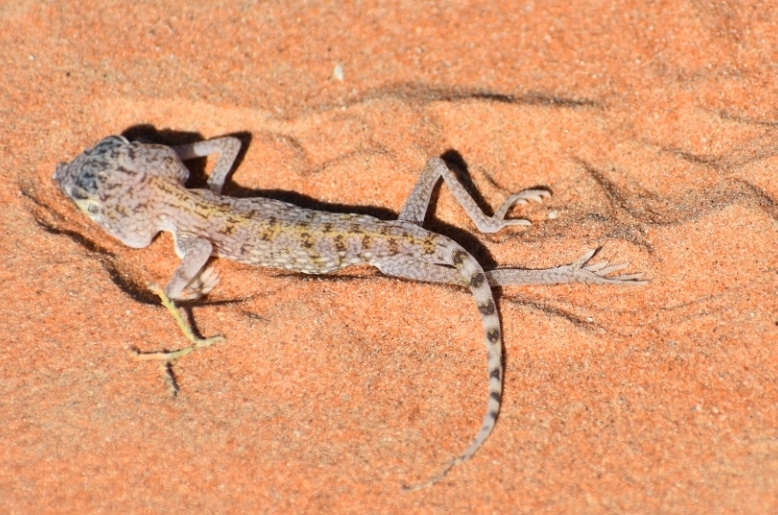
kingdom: Animalia
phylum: Chordata
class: Squamata
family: Gekkonidae
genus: Stenodactylus
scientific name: Stenodactylus doriae
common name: Dune sand gecko
